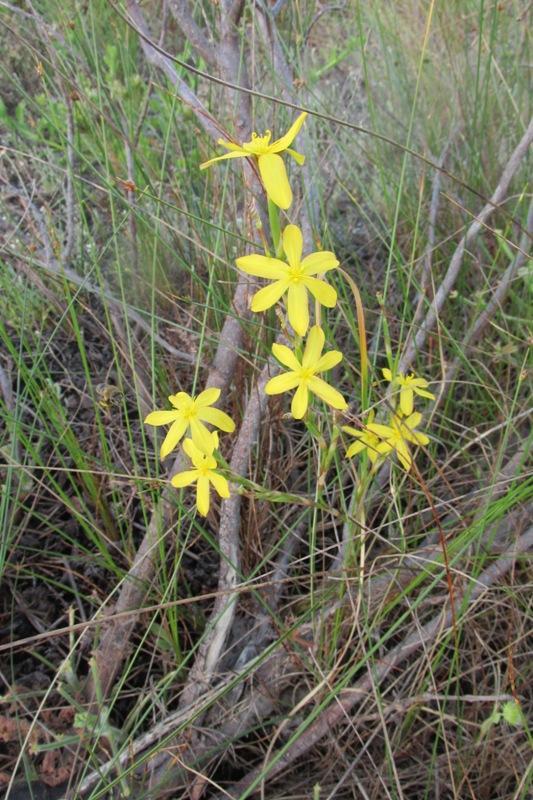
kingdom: Plantae
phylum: Tracheophyta
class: Liliopsida
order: Asparagales
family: Iridaceae
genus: Moraea
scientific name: Moraea lewisiae
